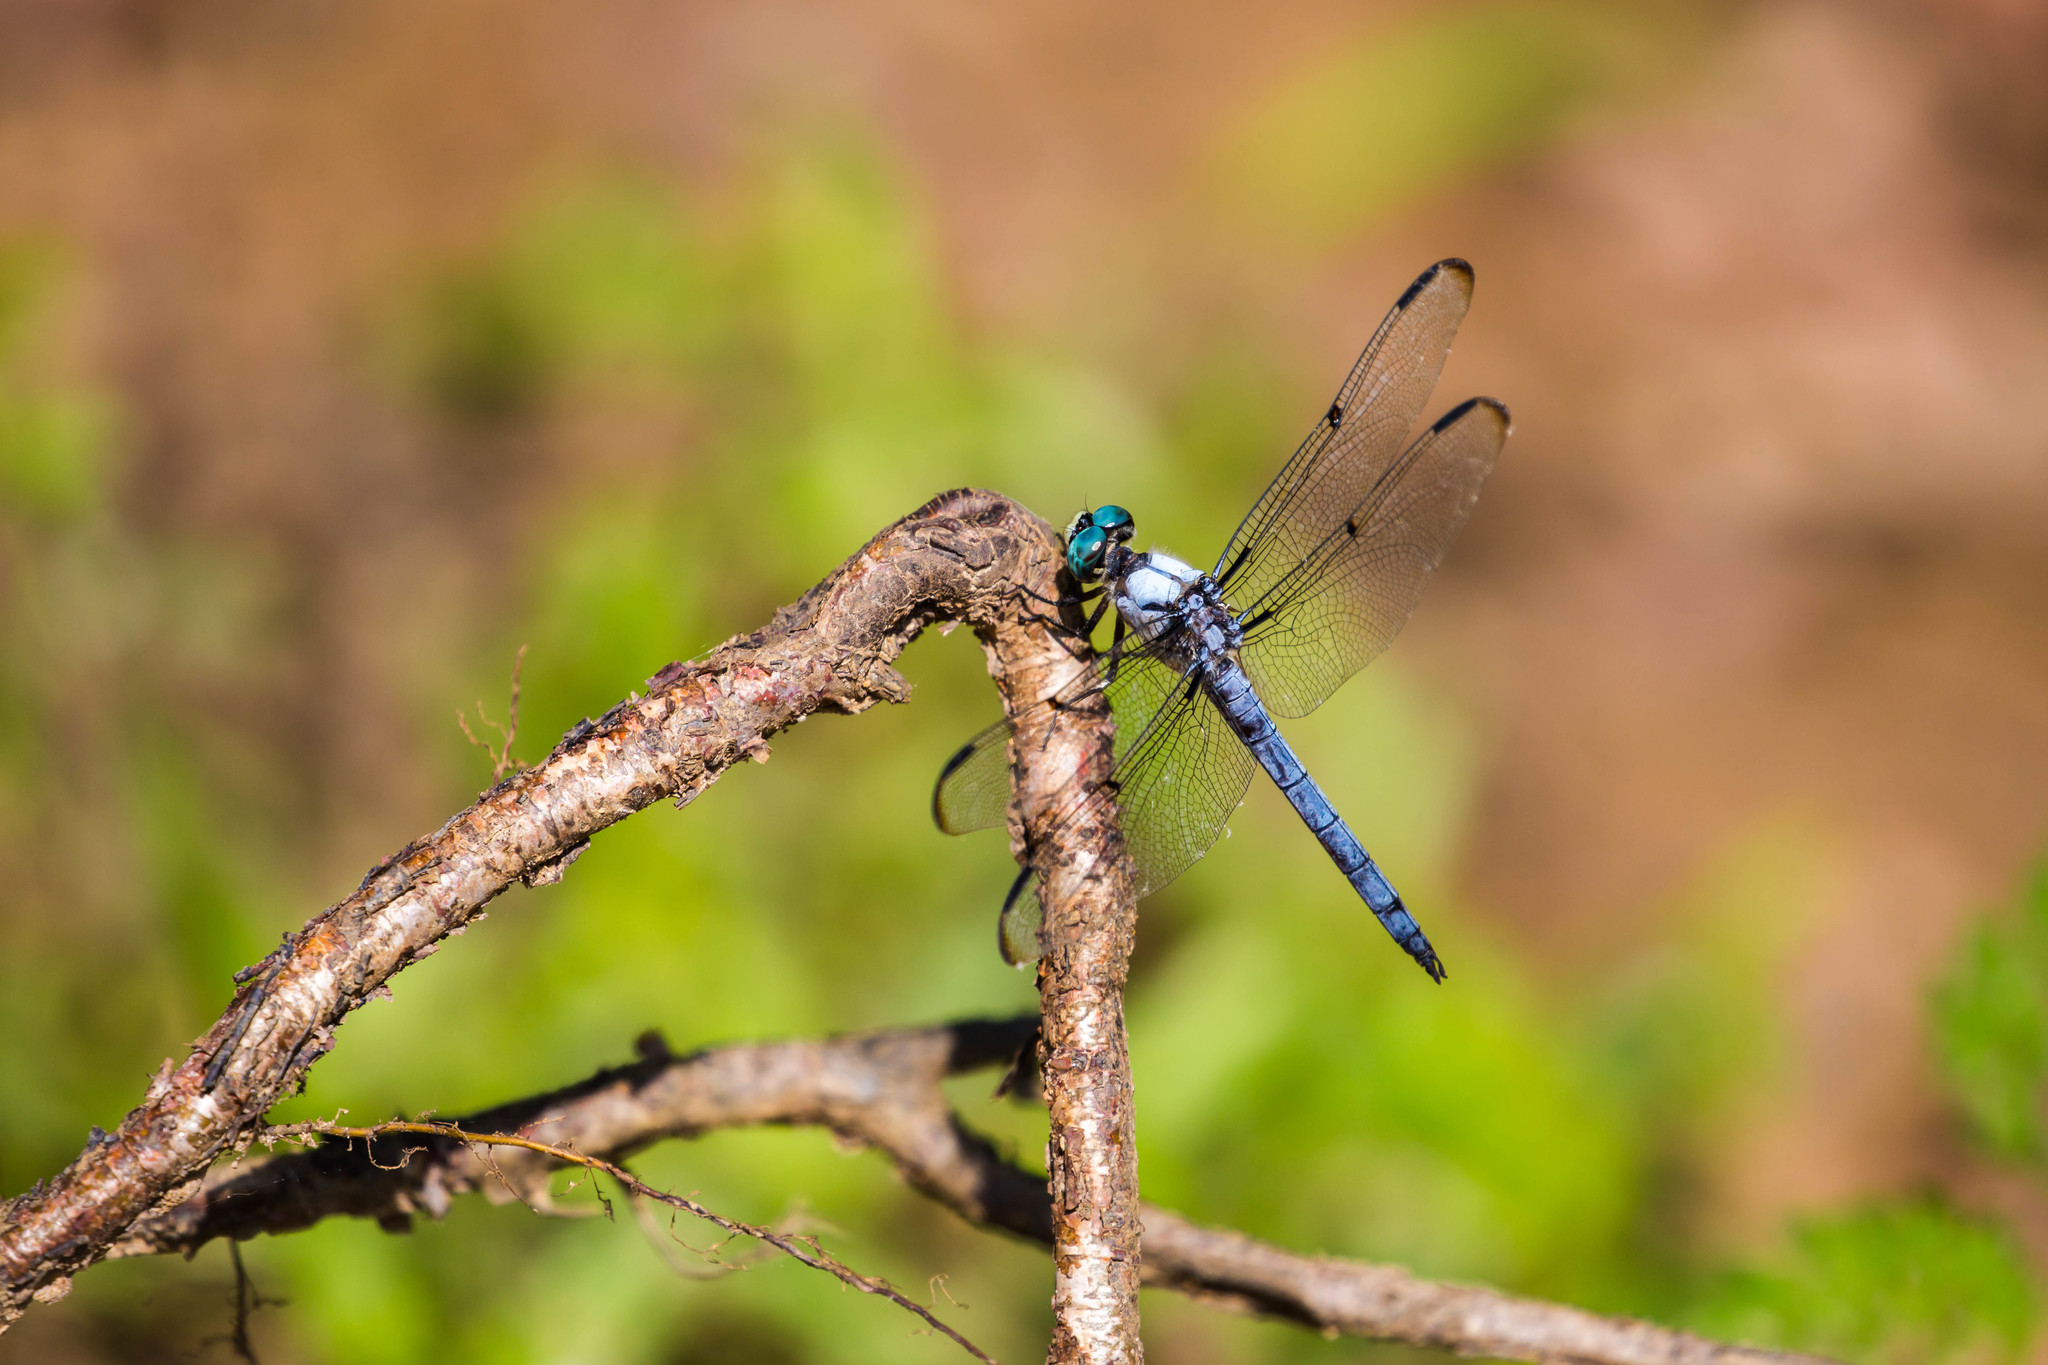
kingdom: Animalia
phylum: Arthropoda
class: Insecta
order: Odonata
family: Libellulidae
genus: Libellula
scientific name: Libellula vibrans
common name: Great blue skimmer
